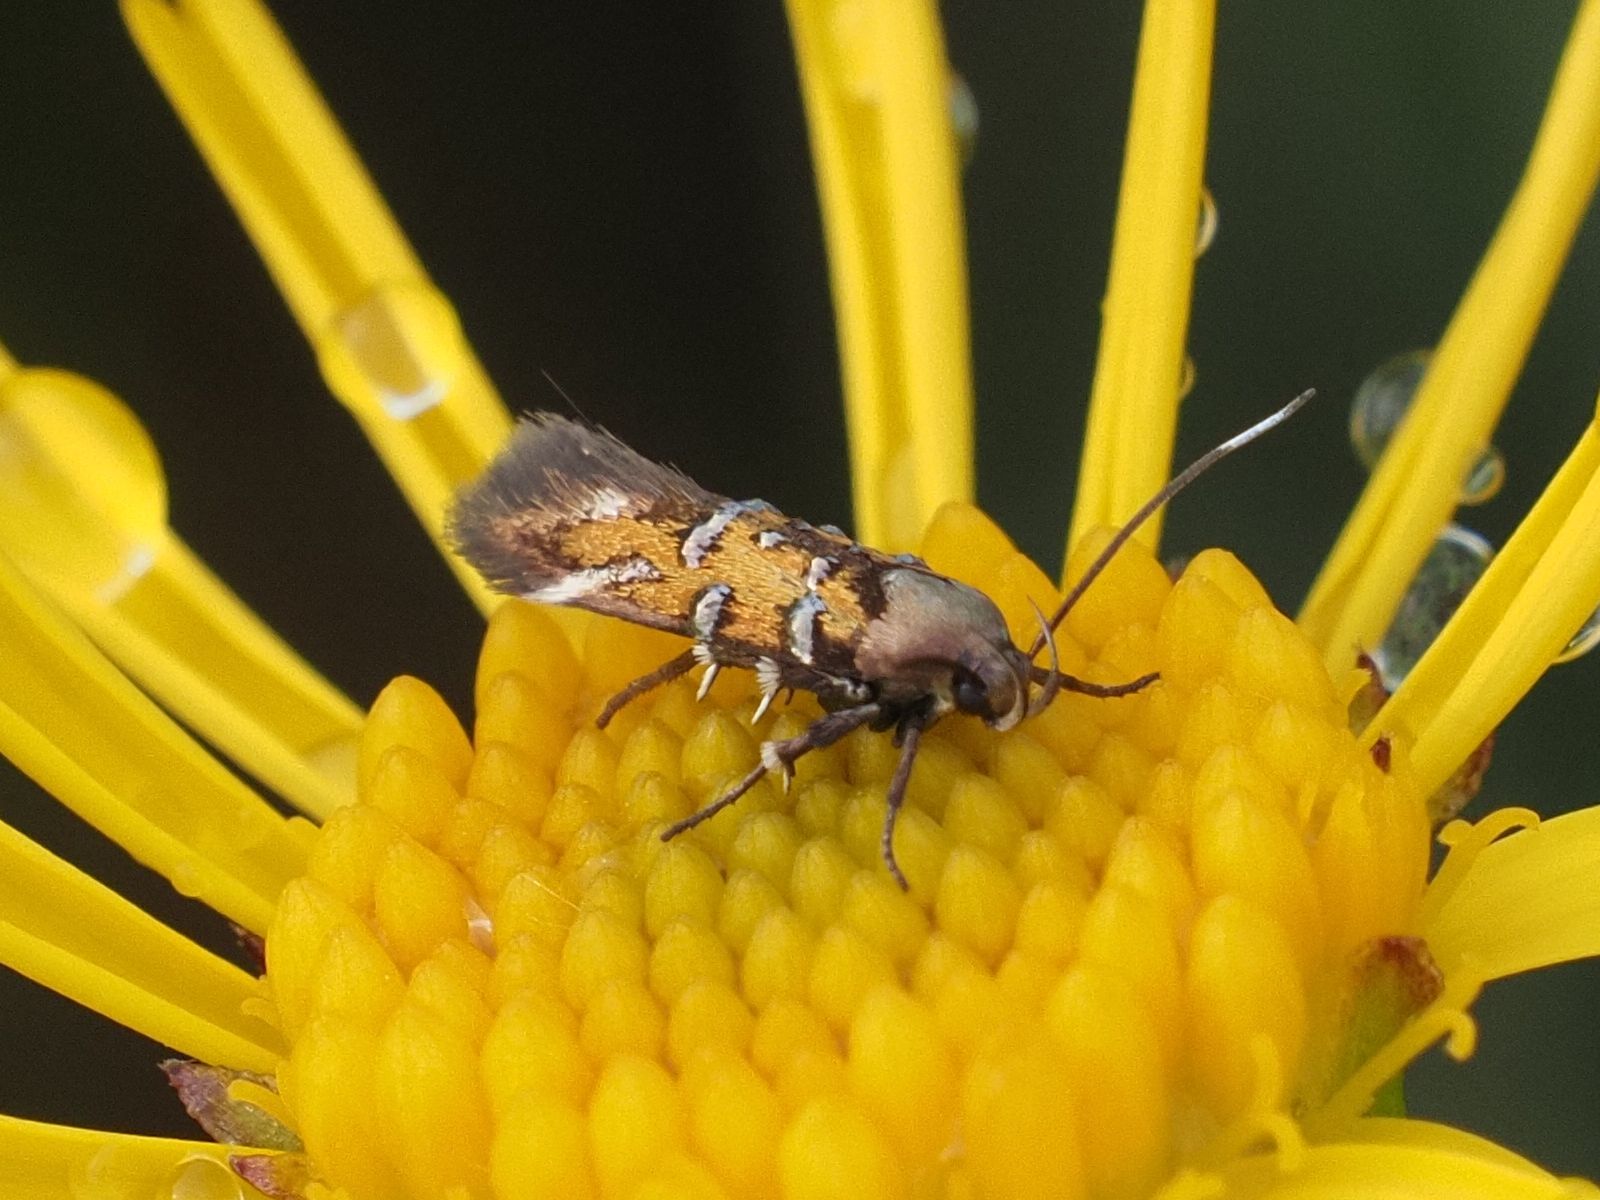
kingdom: Animalia
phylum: Arthropoda
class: Insecta
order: Lepidoptera
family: Cosmopterigidae
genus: Pancalia
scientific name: Pancalia leuwenhoekella
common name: Violet cosmet
